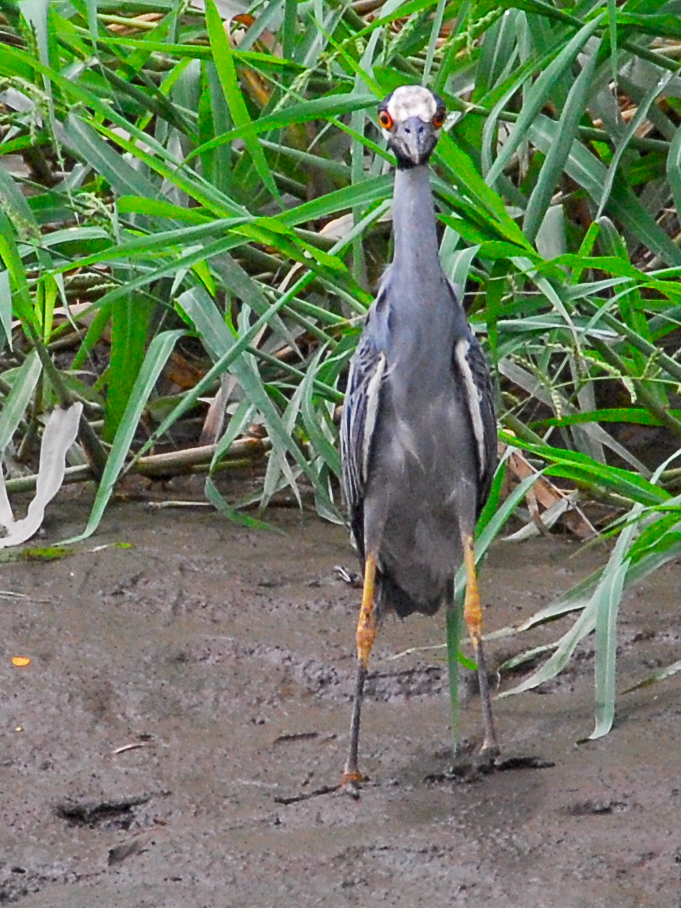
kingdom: Animalia
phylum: Chordata
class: Aves
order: Pelecaniformes
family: Ardeidae
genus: Nyctanassa
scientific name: Nyctanassa violacea
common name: Yellow-crowned night heron
